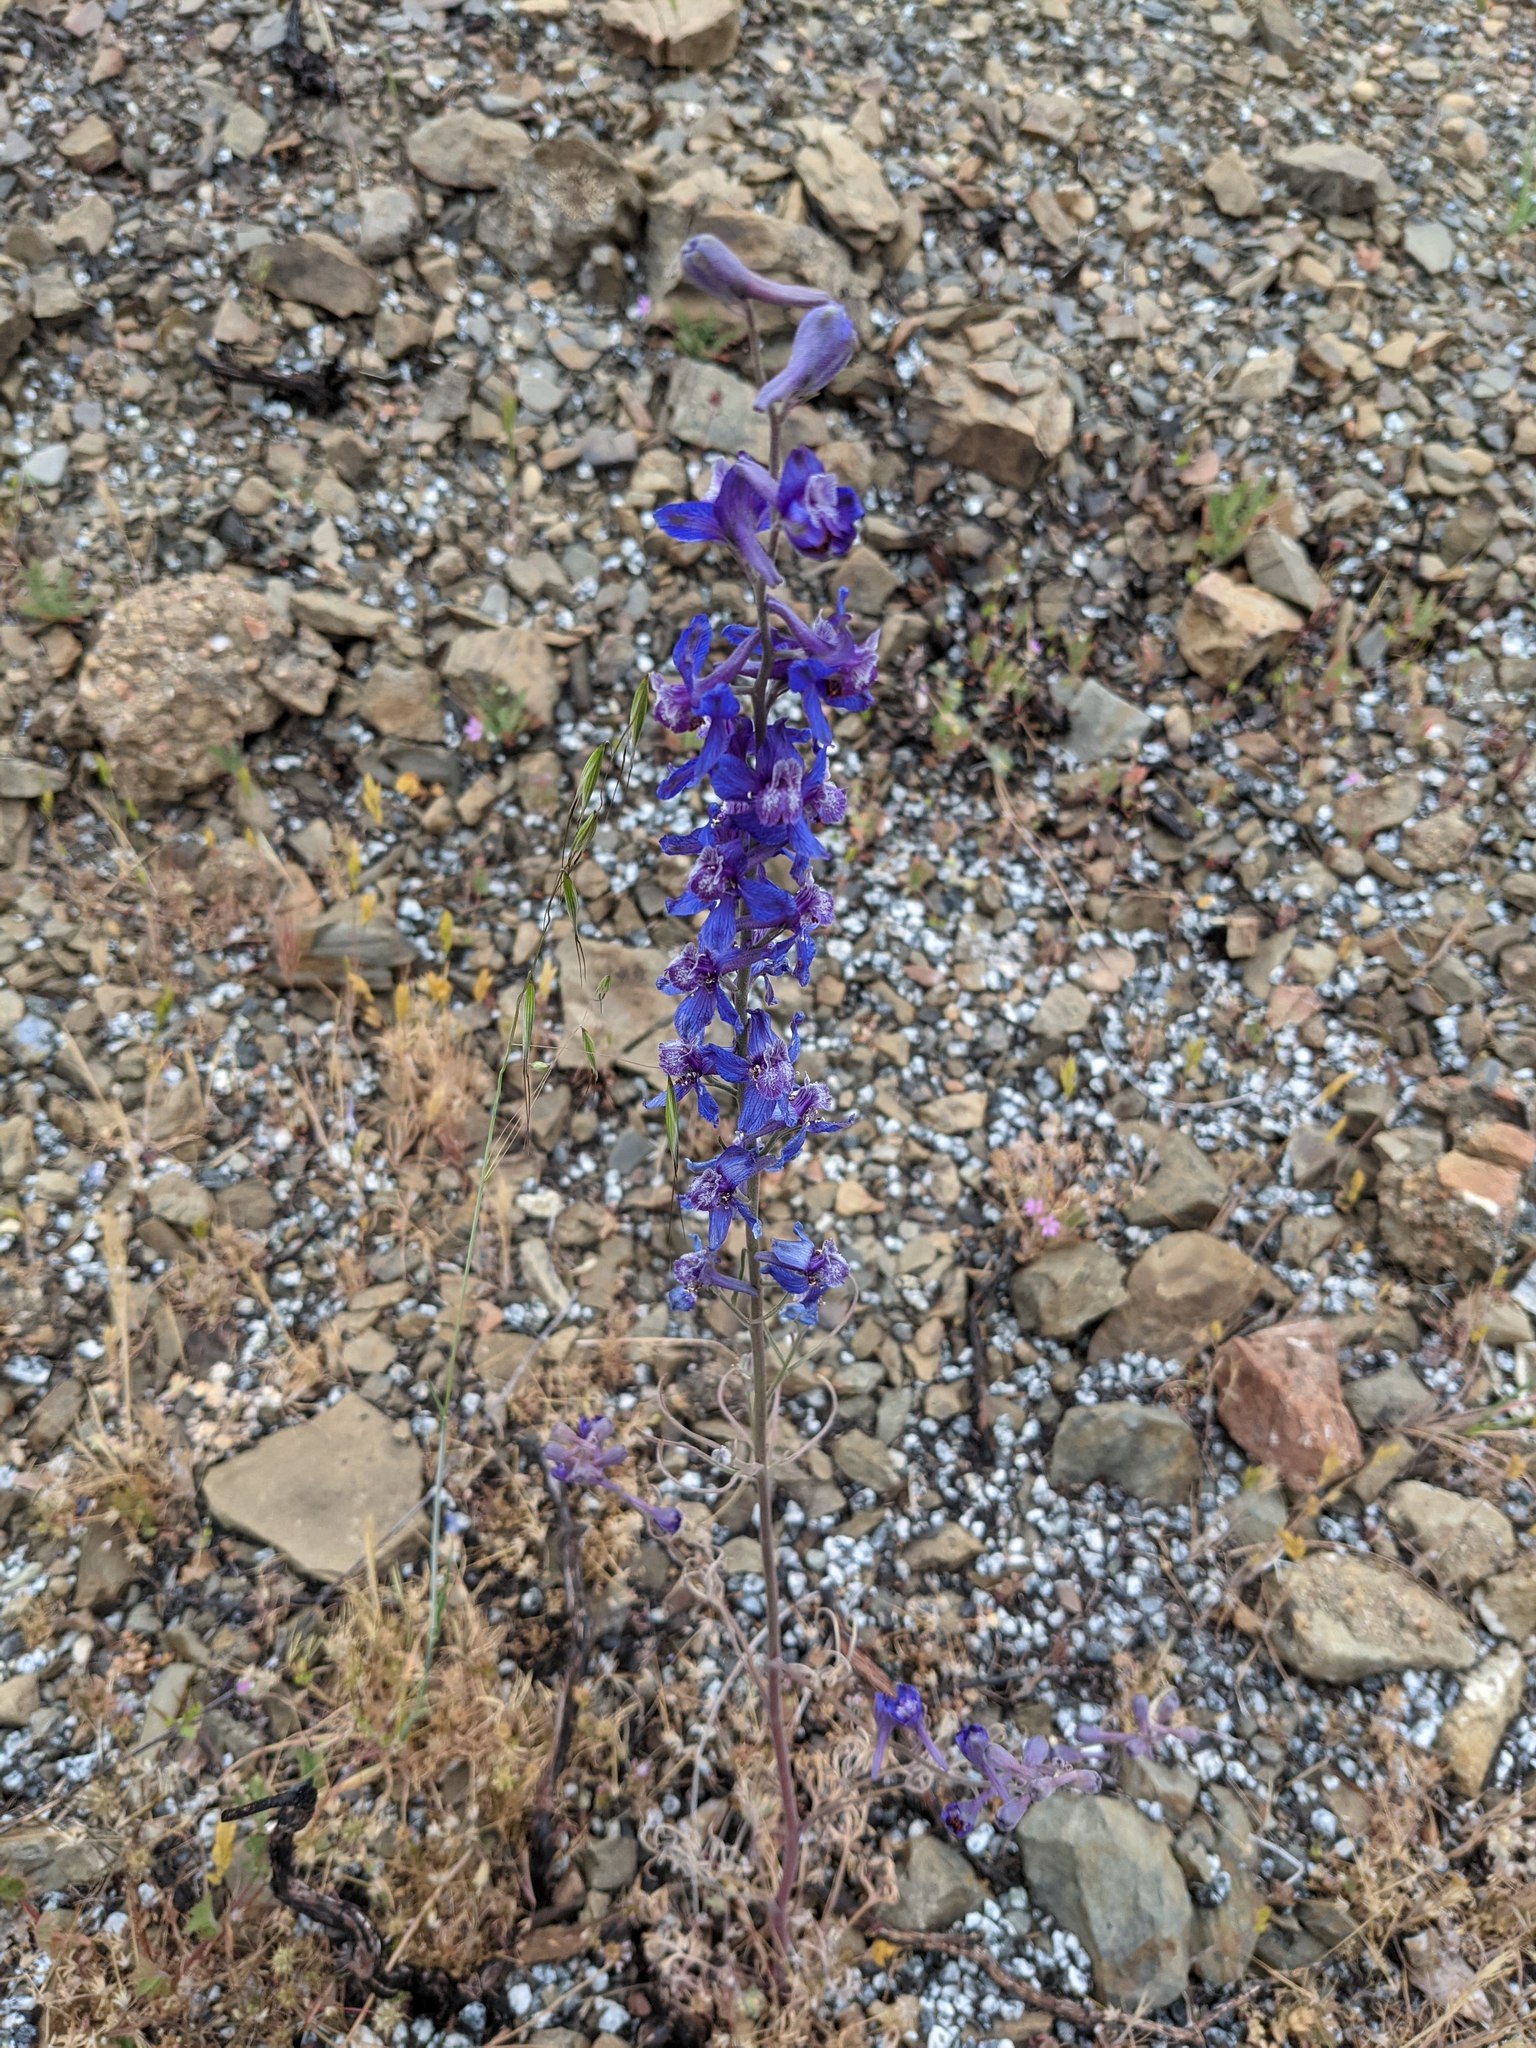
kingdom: Plantae
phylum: Tracheophyta
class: Magnoliopsida
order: Ranunculales
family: Ranunculaceae
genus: Delphinium
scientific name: Delphinium parryi
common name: Parry's larkspur
